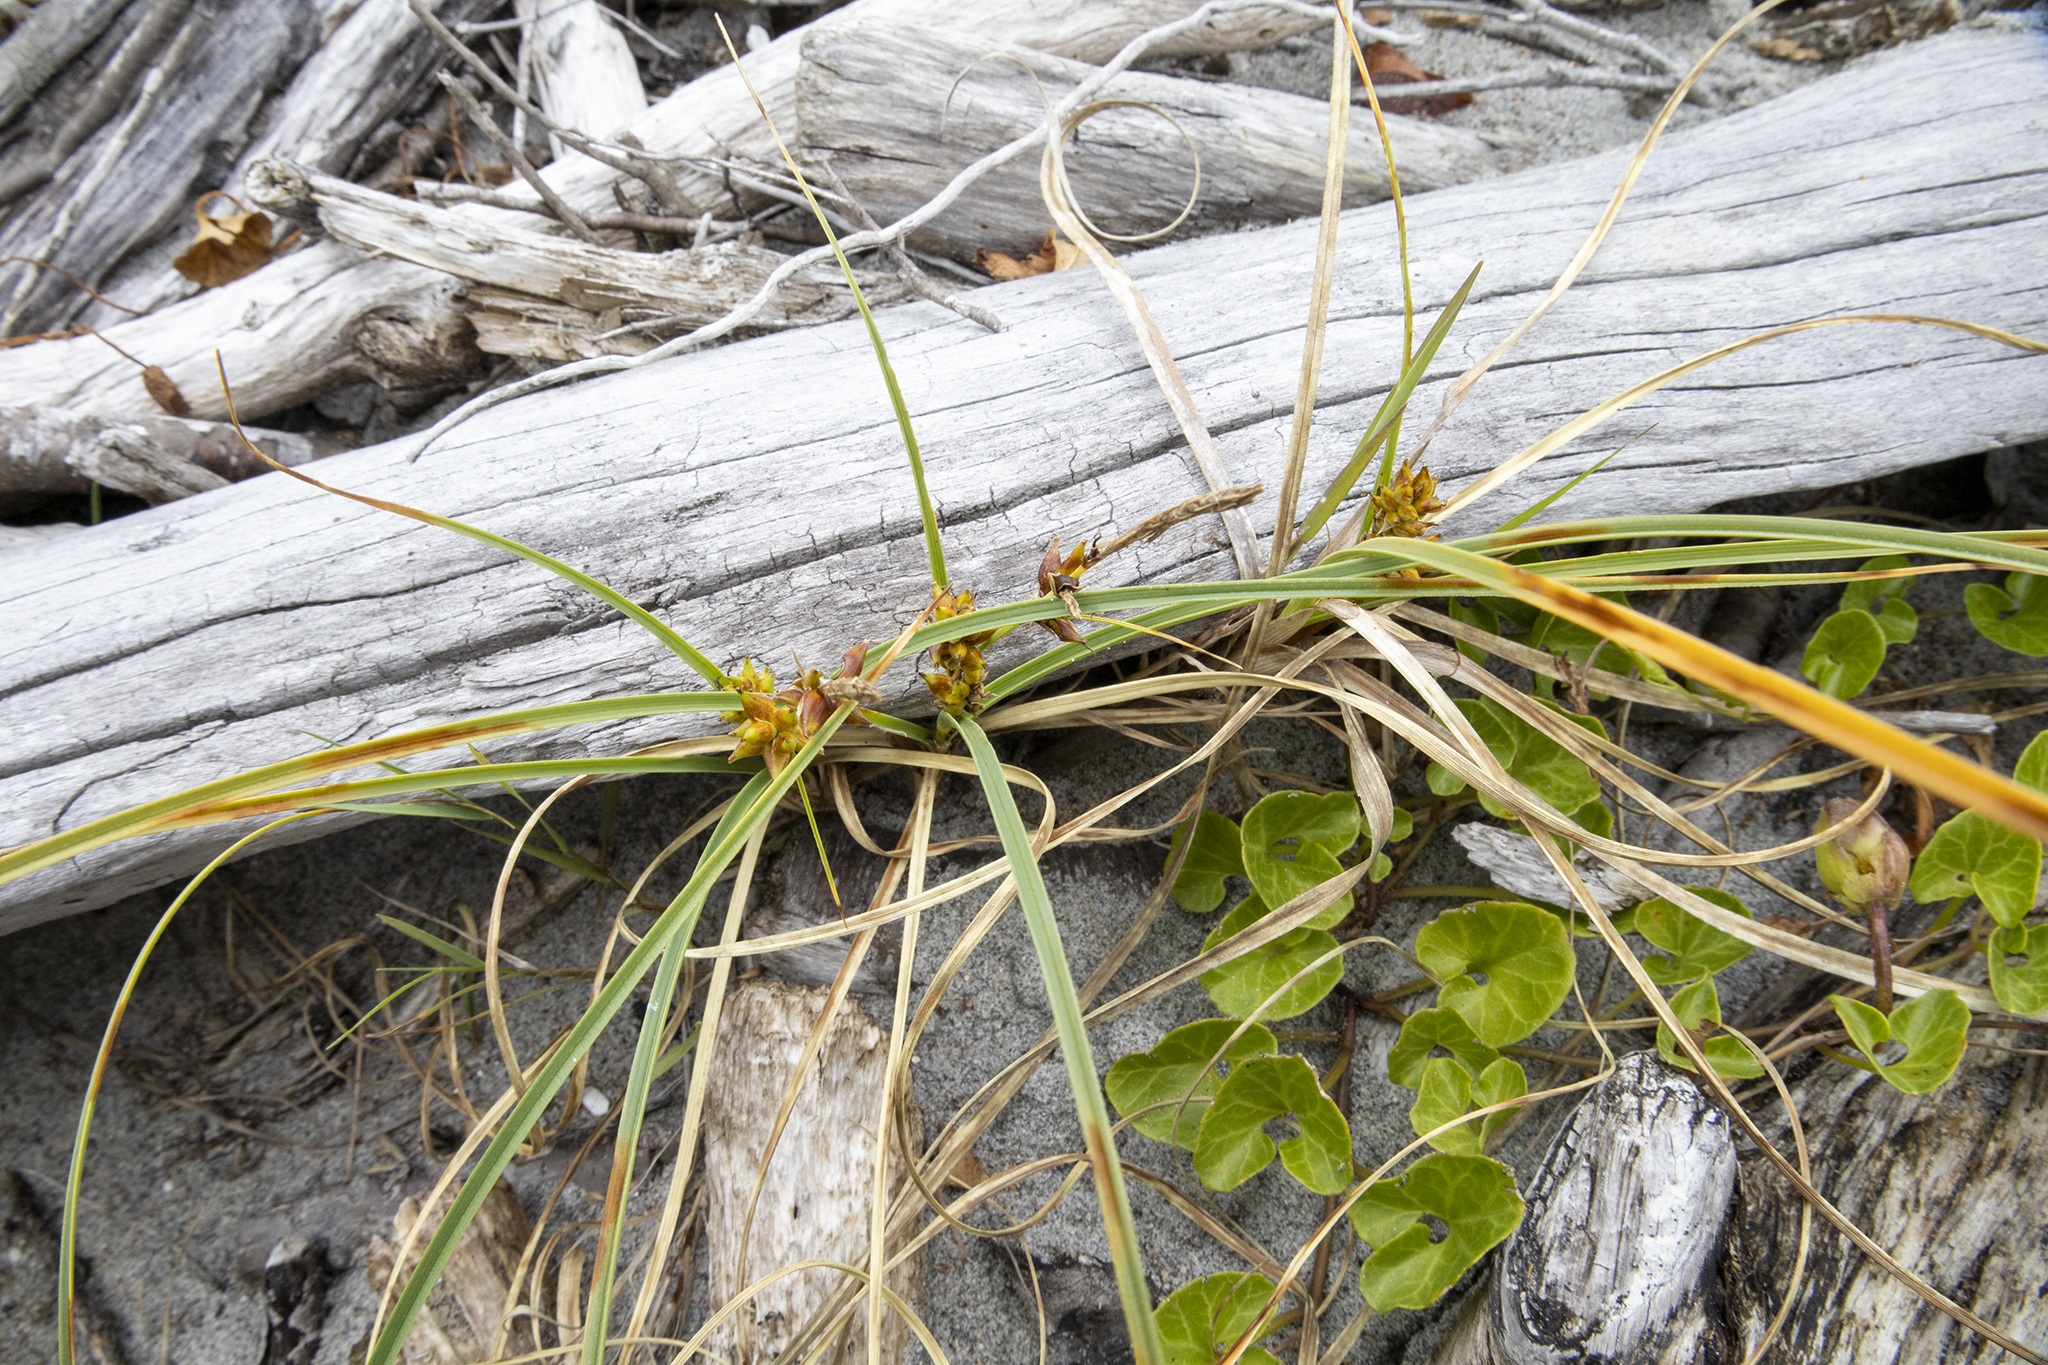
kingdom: Plantae
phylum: Tracheophyta
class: Liliopsida
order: Poales
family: Cyperaceae
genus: Carex
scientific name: Carex pumila
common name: Dwarf sedge
